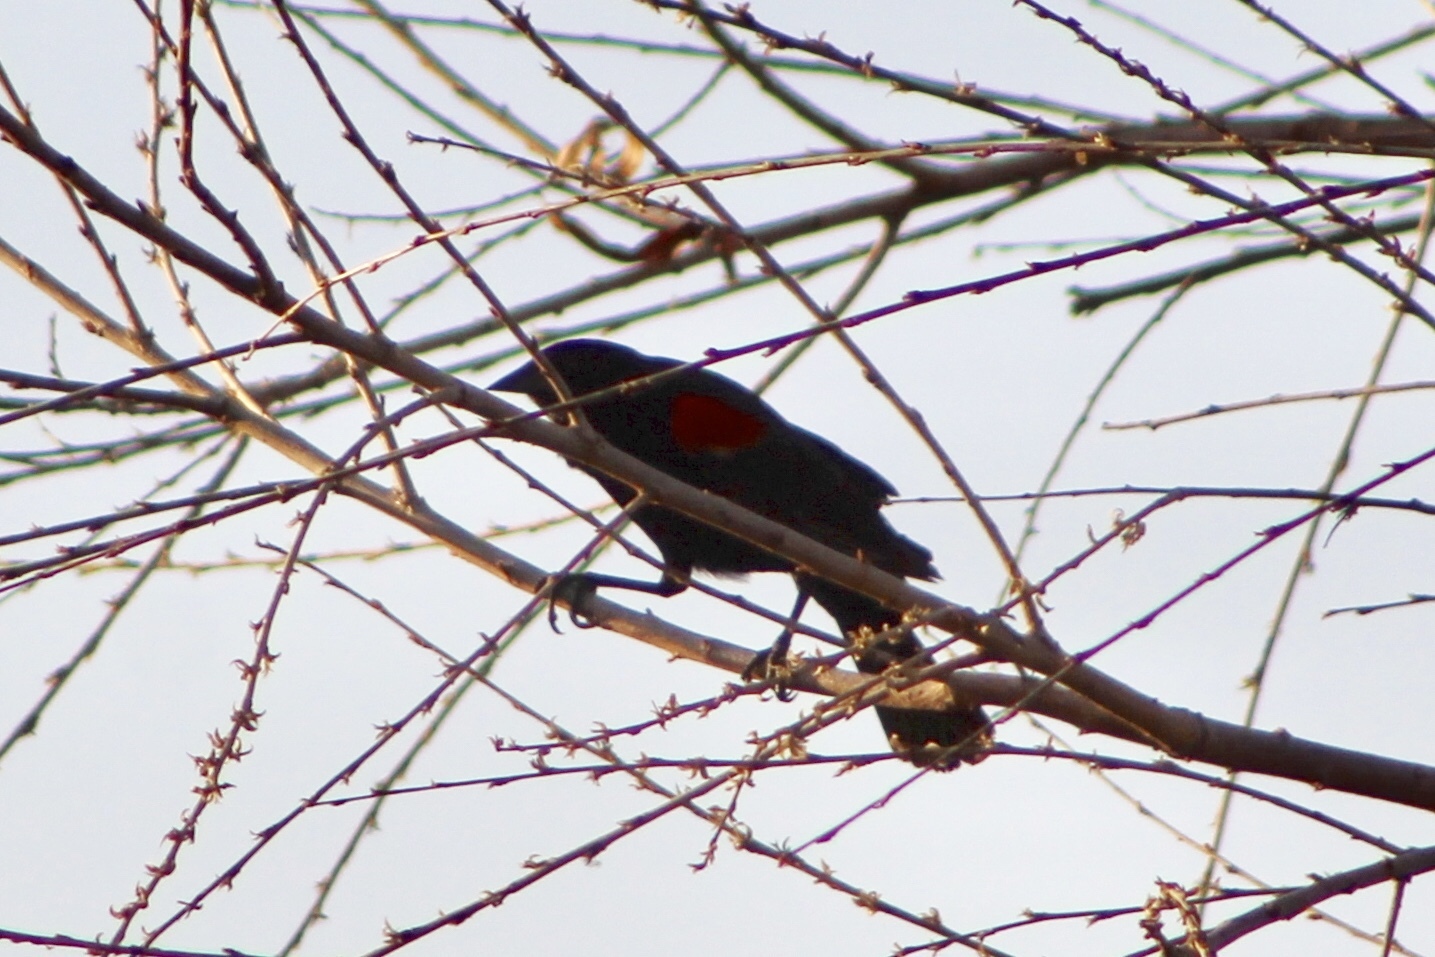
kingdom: Animalia
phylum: Chordata
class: Aves
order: Passeriformes
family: Icteridae
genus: Agelaius
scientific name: Agelaius phoeniceus
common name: Red-winged blackbird
